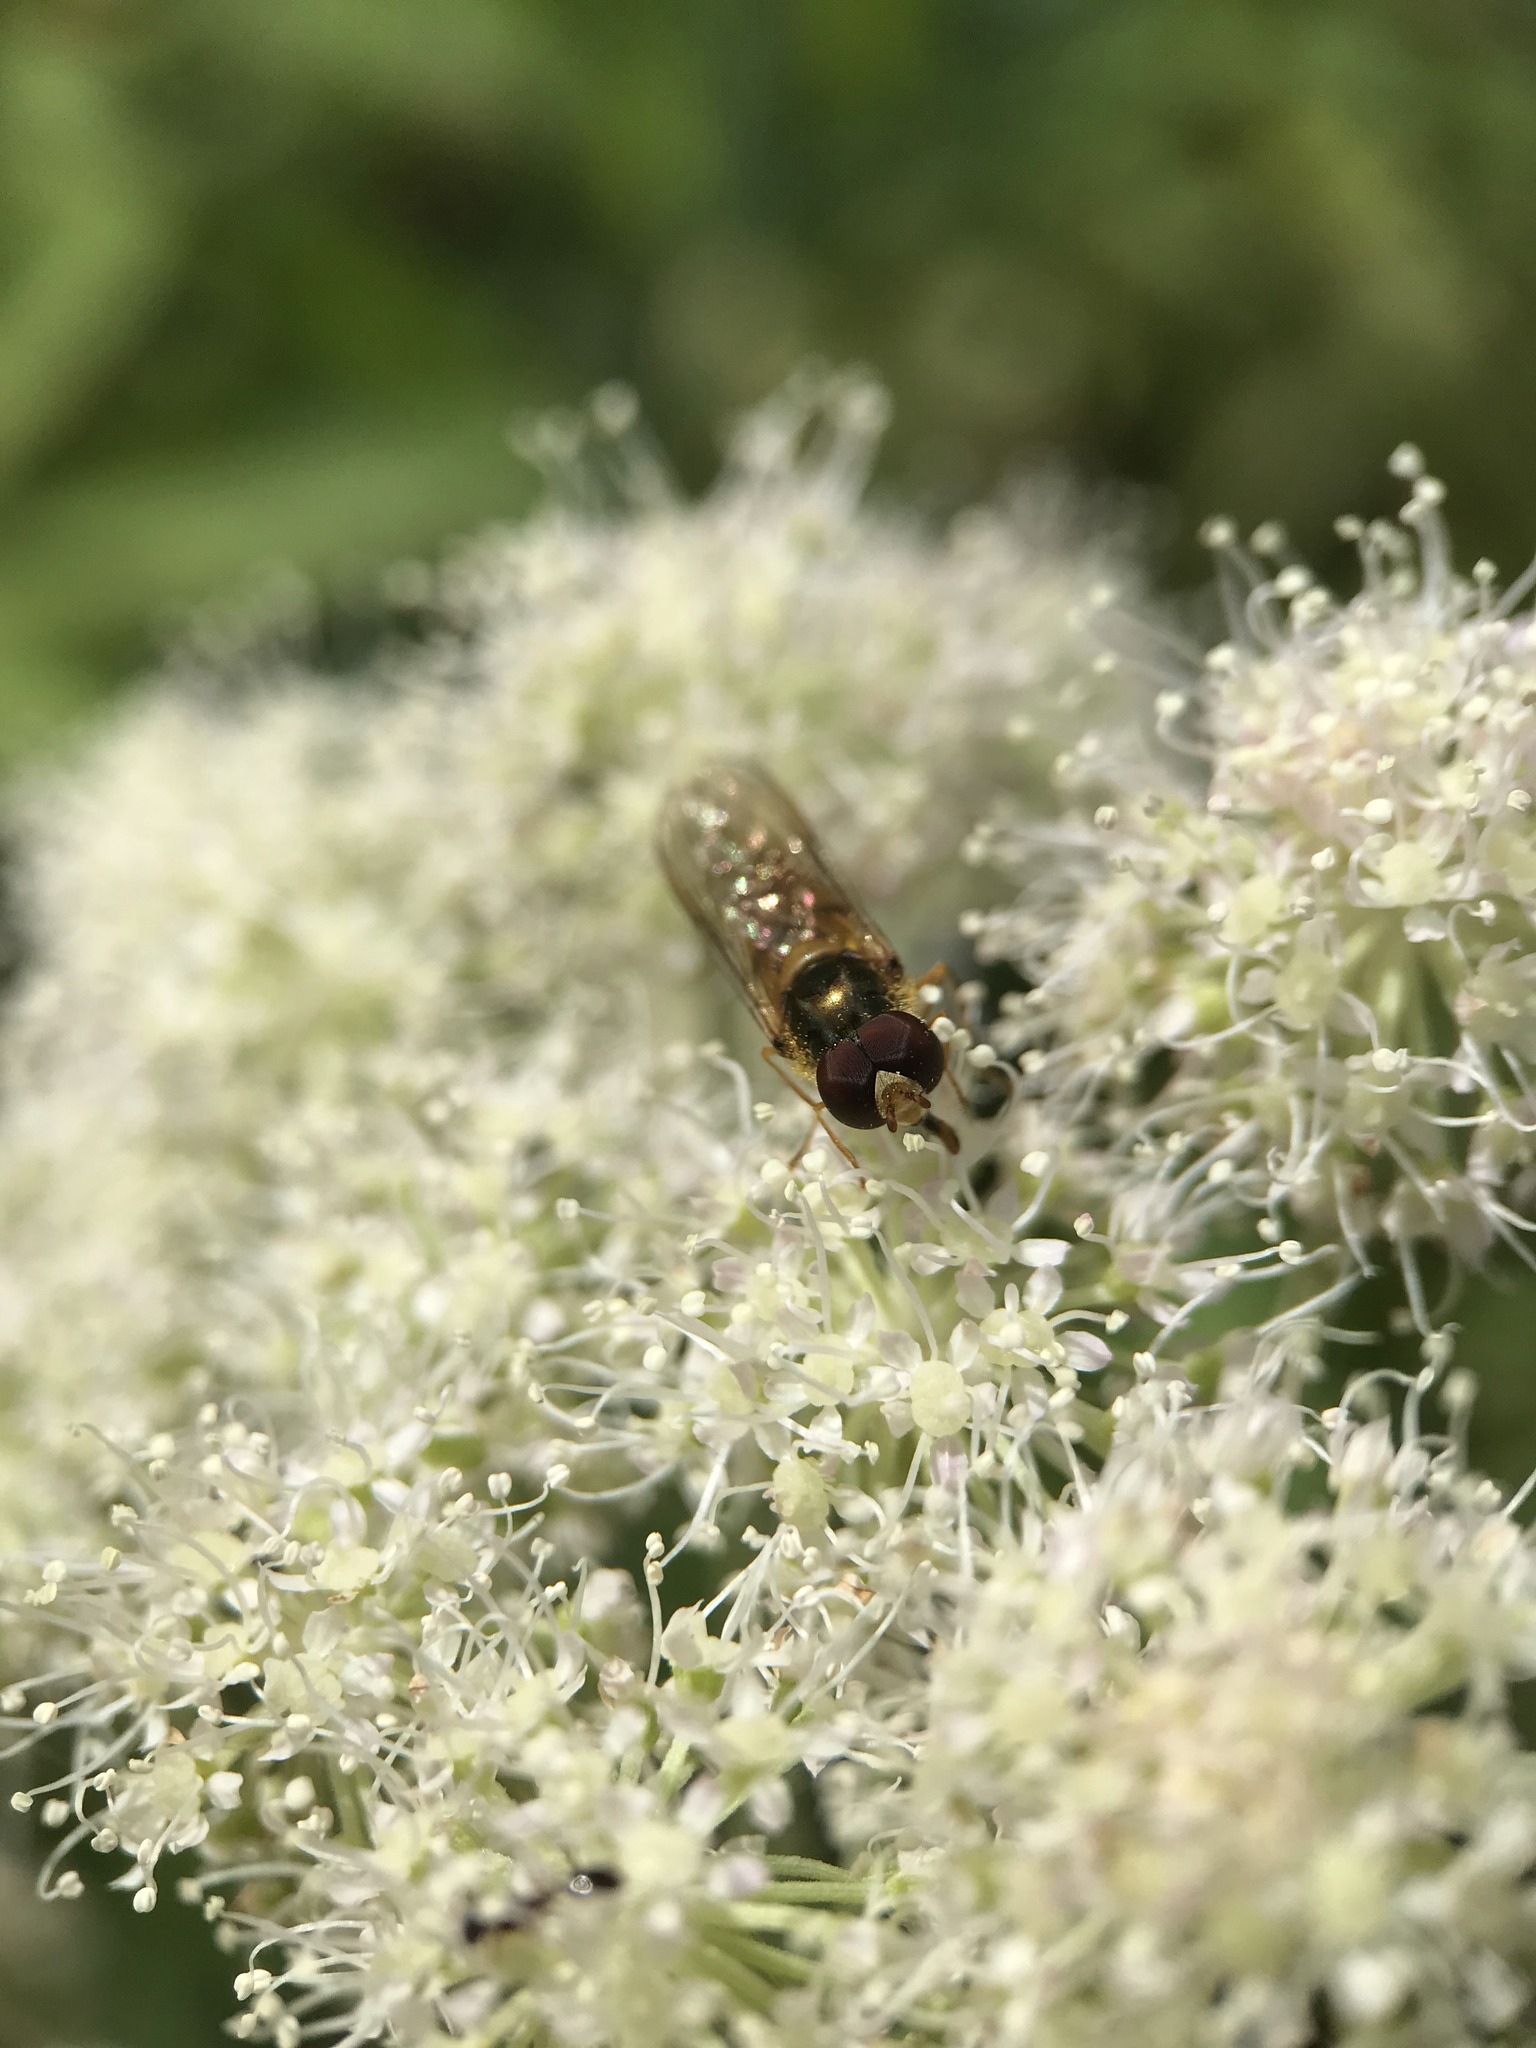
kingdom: Animalia
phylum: Arthropoda
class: Insecta
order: Diptera
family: Syrphidae
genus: Episyrphus
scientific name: Episyrphus balteatus
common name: Marmalade hoverfly
